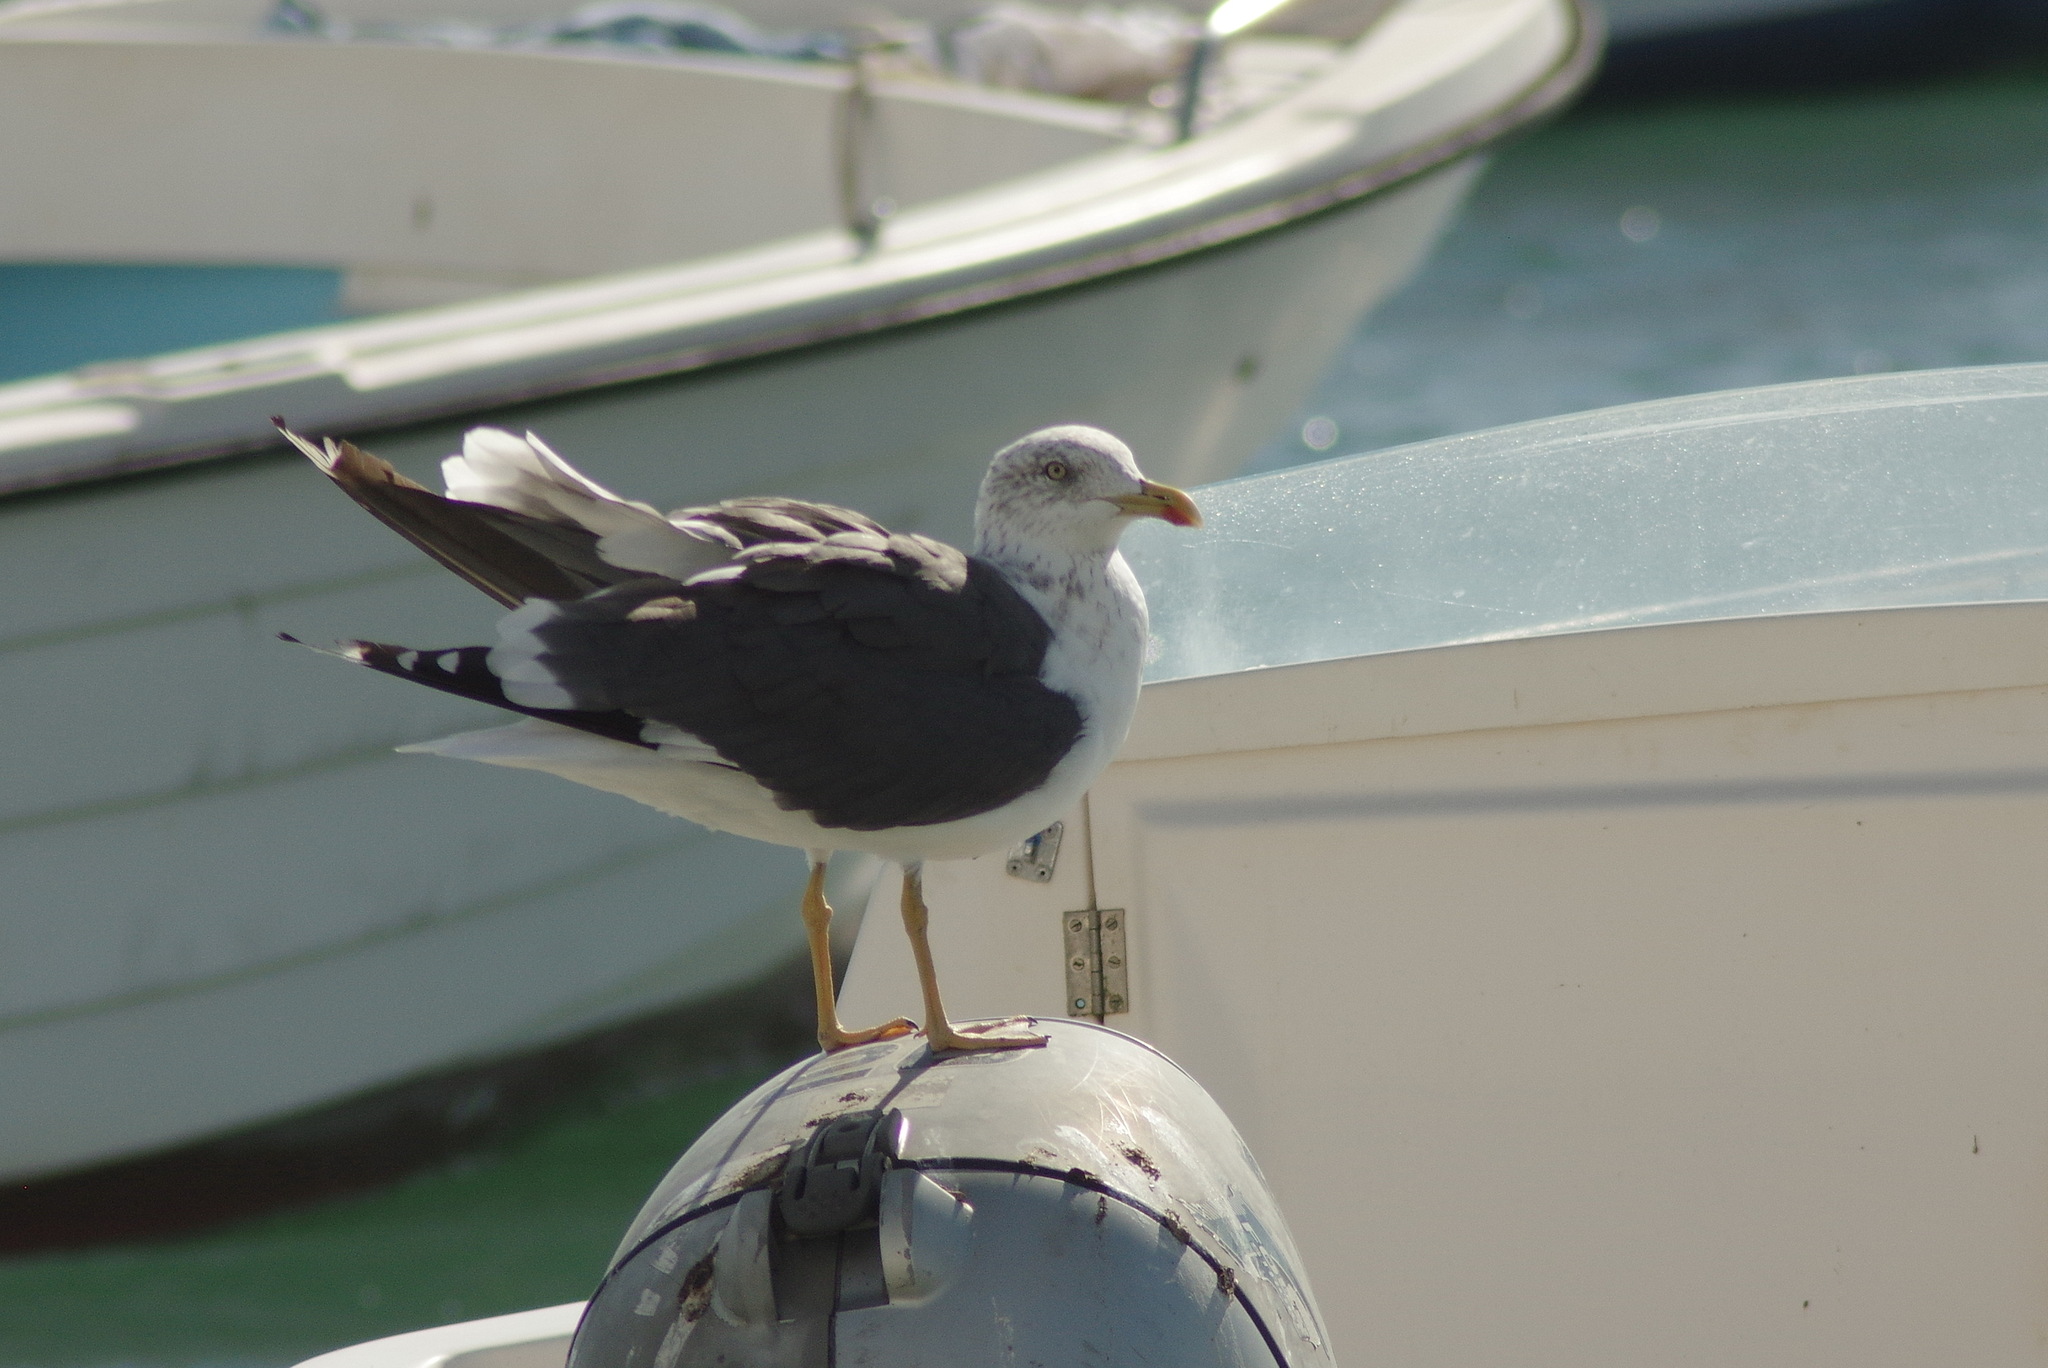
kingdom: Animalia
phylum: Chordata
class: Aves
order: Charadriiformes
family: Laridae
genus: Larus
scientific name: Larus fuscus
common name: Lesser black-backed gull
